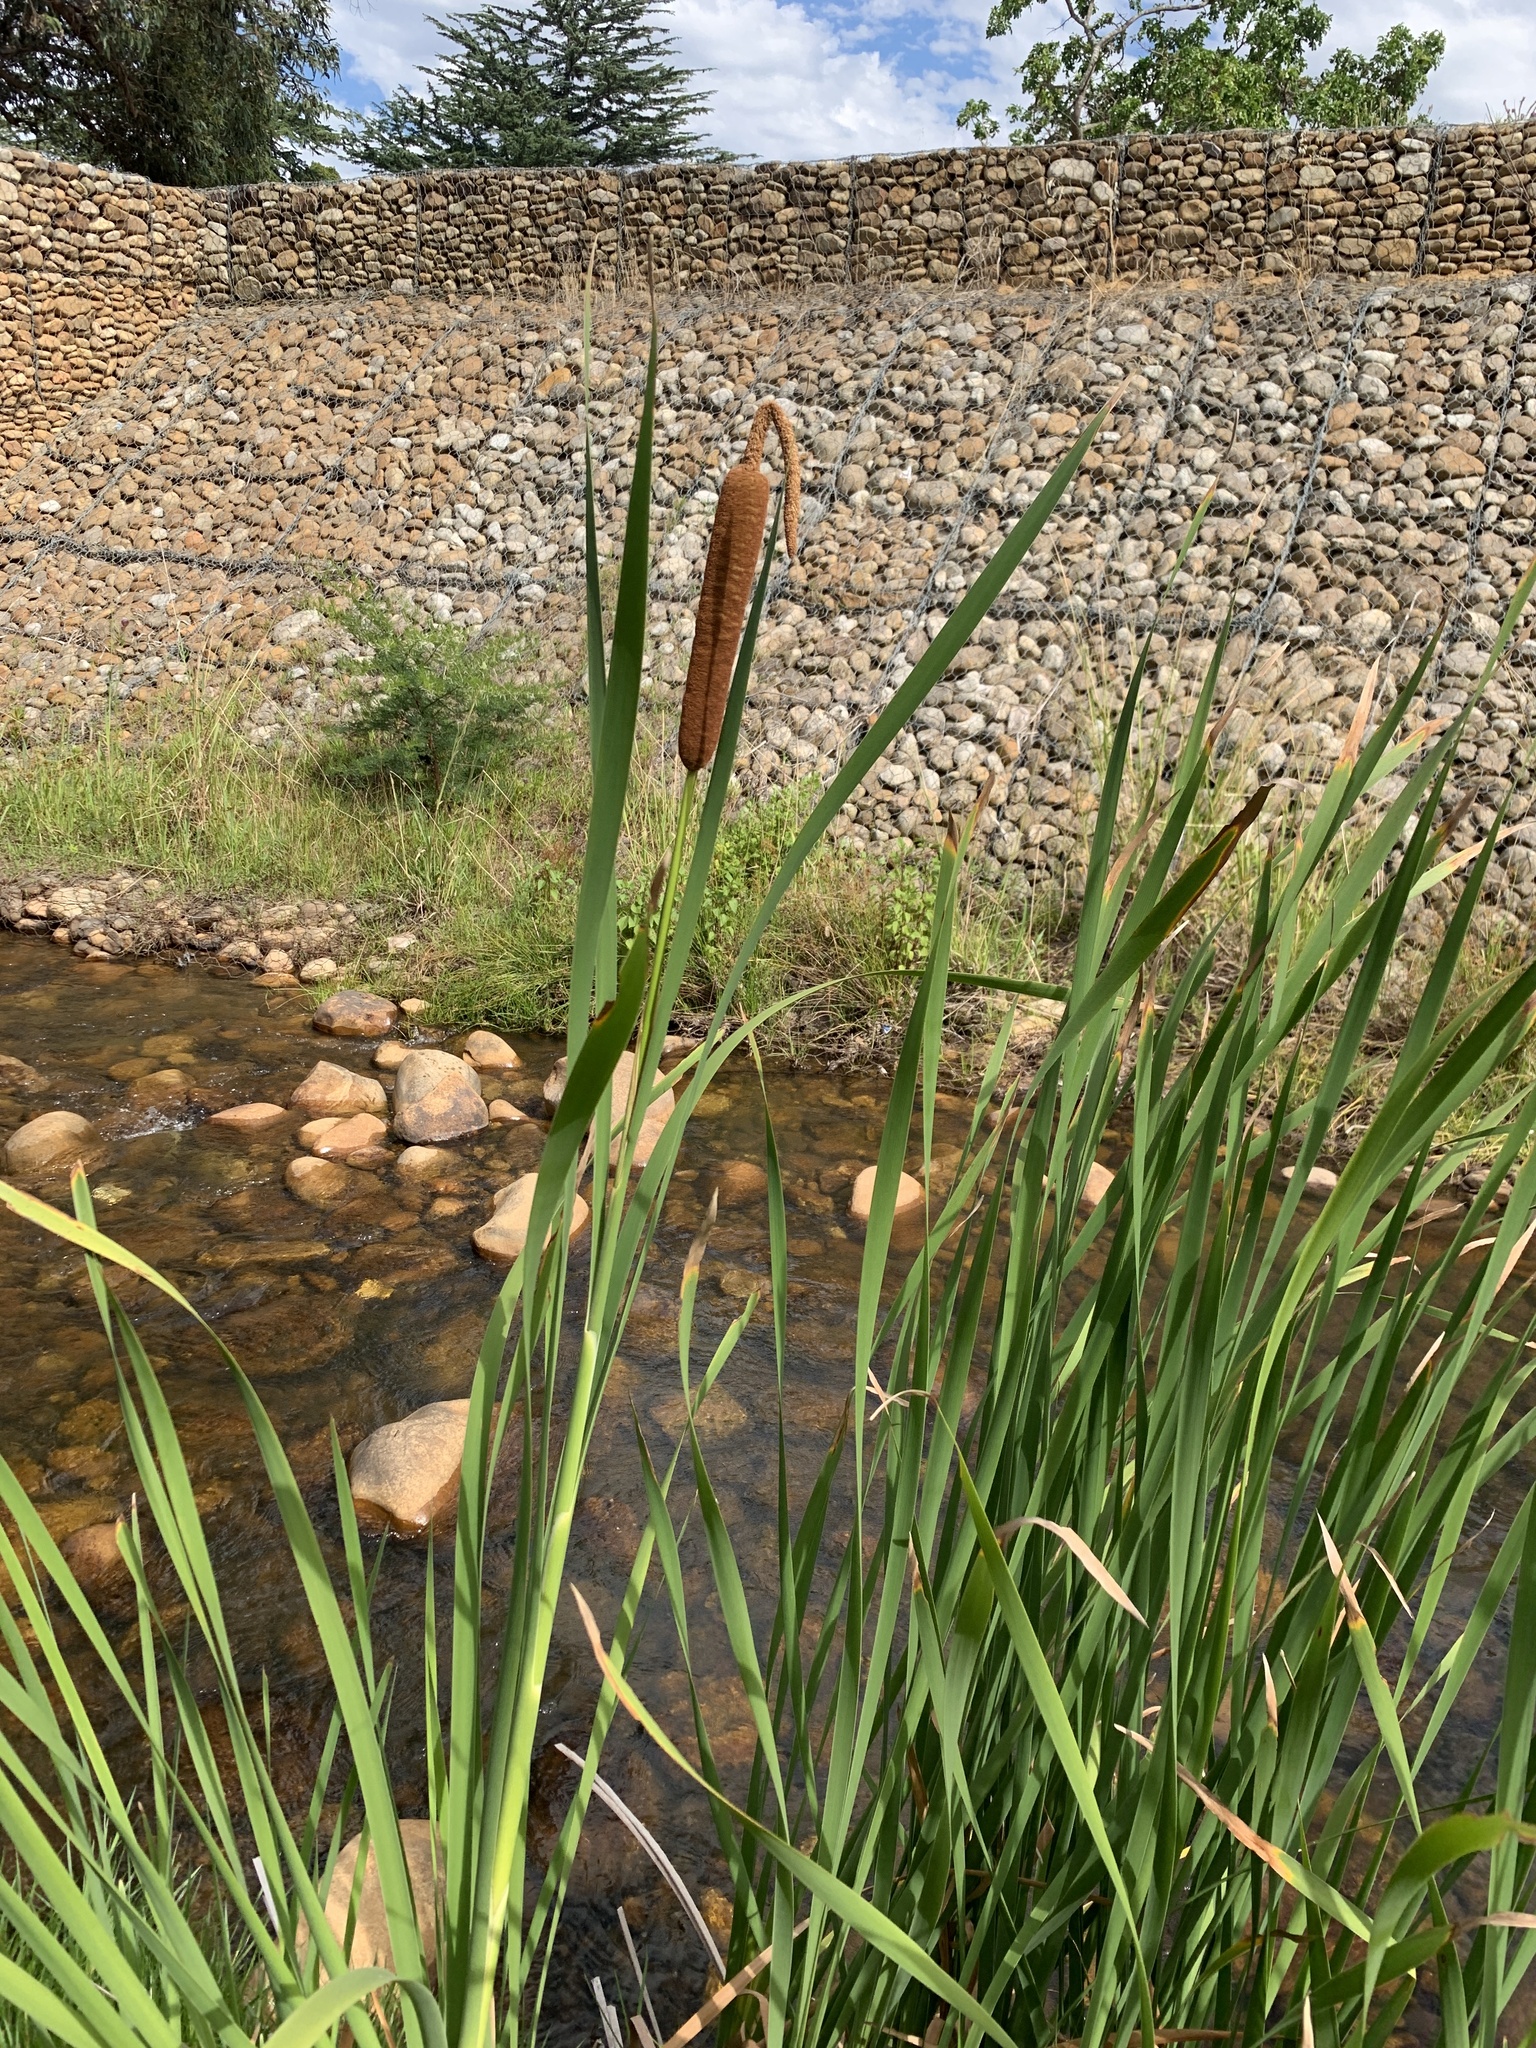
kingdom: Plantae
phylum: Tracheophyta
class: Liliopsida
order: Poales
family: Typhaceae
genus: Typha
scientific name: Typha capensis
